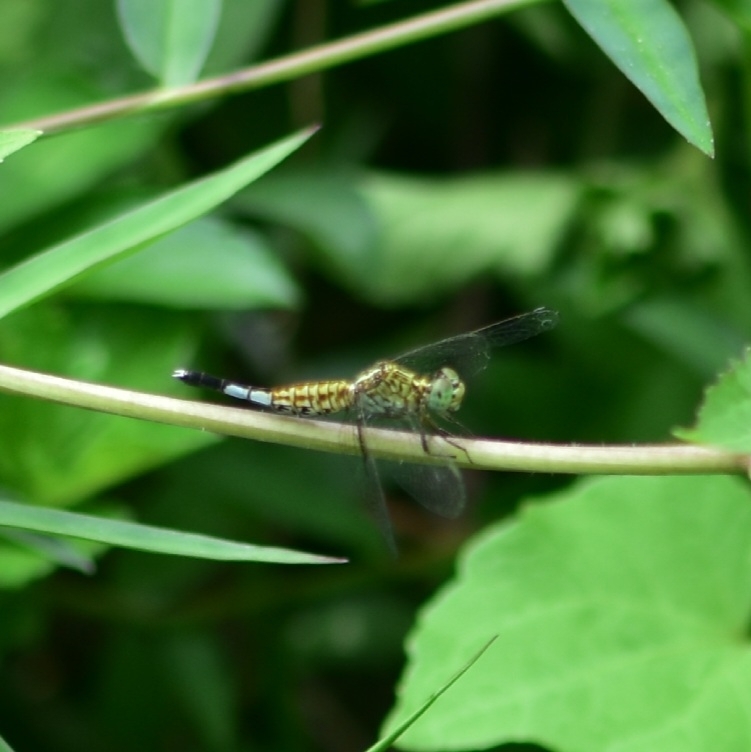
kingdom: Animalia
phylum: Arthropoda
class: Insecta
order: Odonata
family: Libellulidae
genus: Acisoma
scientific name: Acisoma panorpoides
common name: Asian pintail
